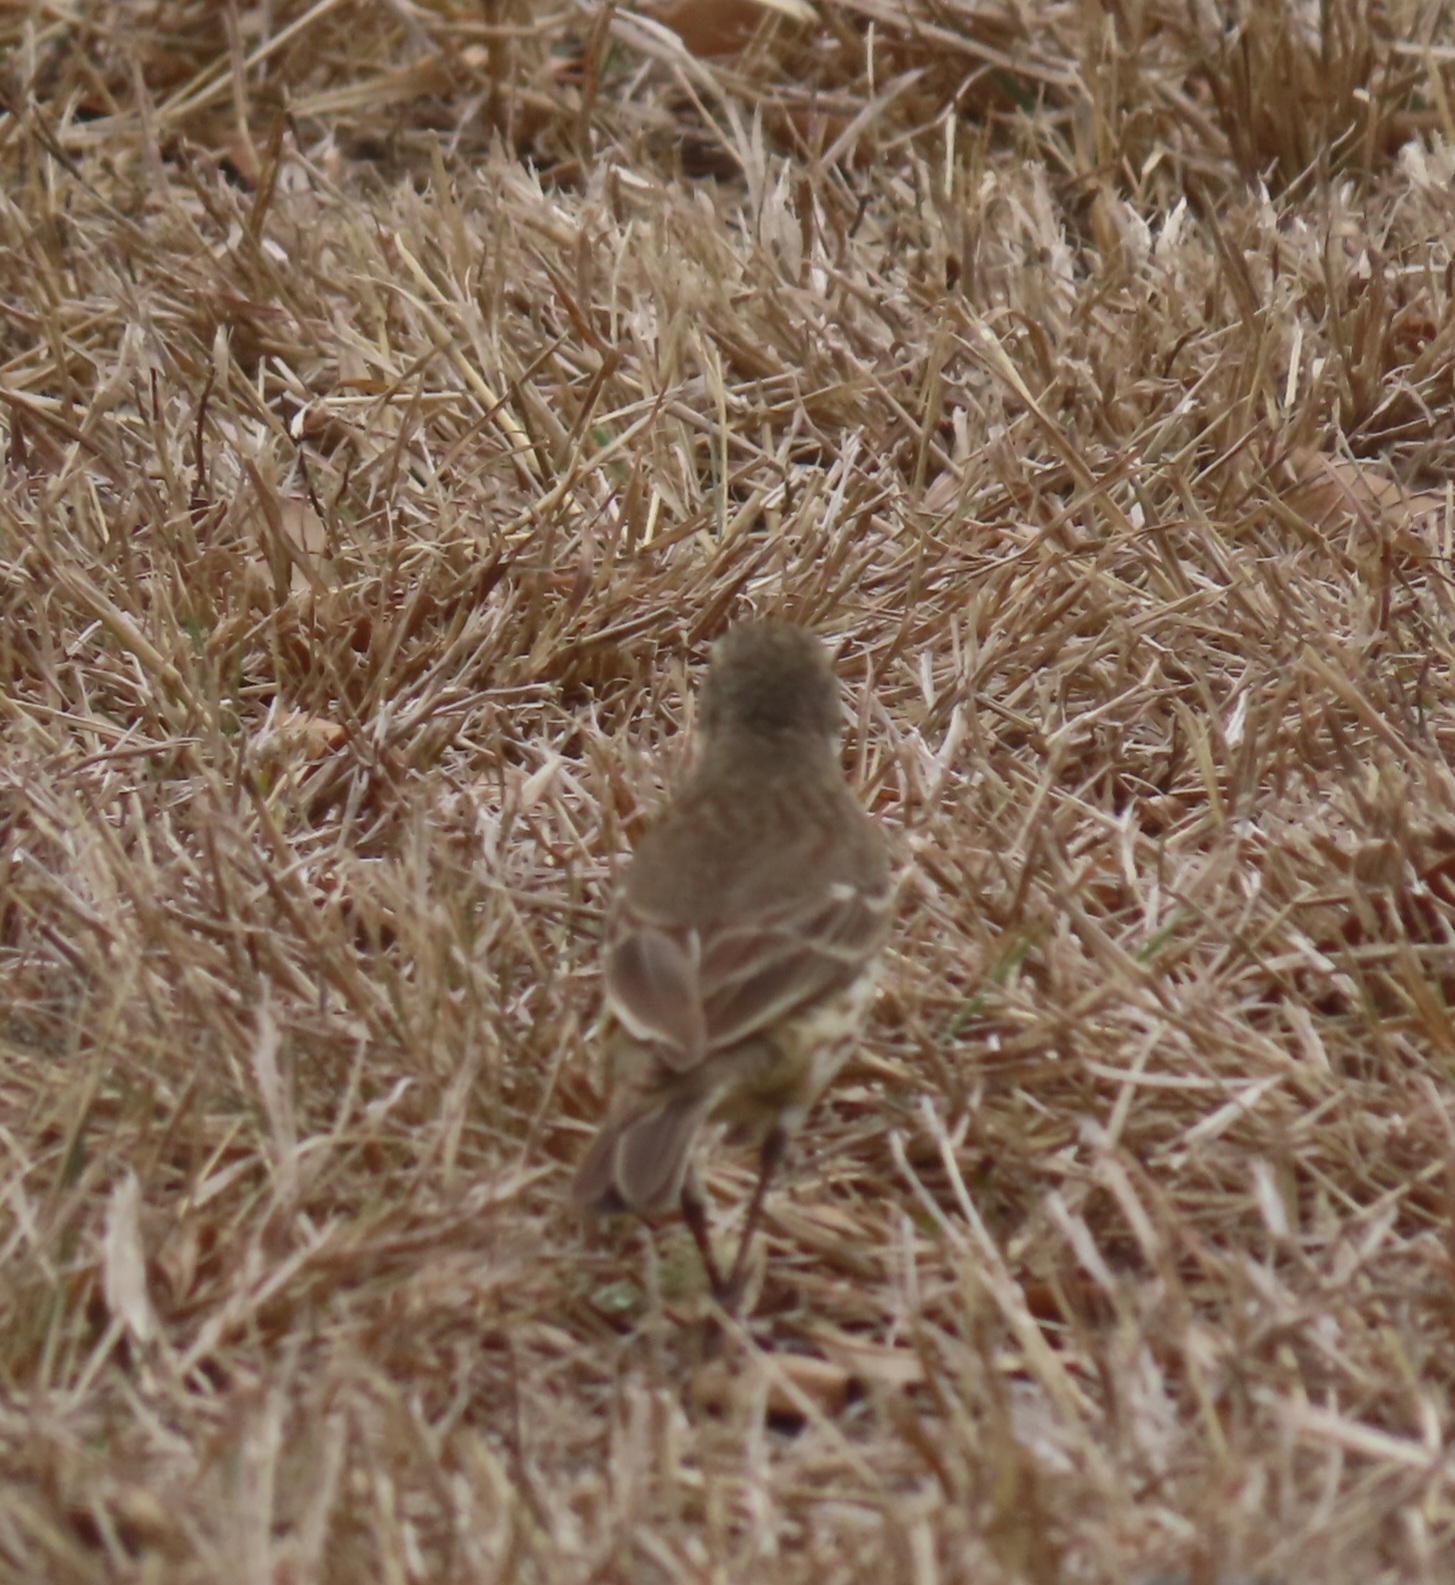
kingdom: Animalia
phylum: Chordata
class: Aves
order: Passeriformes
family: Motacillidae
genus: Anthus
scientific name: Anthus rubescens
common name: Buff-bellied pipit
